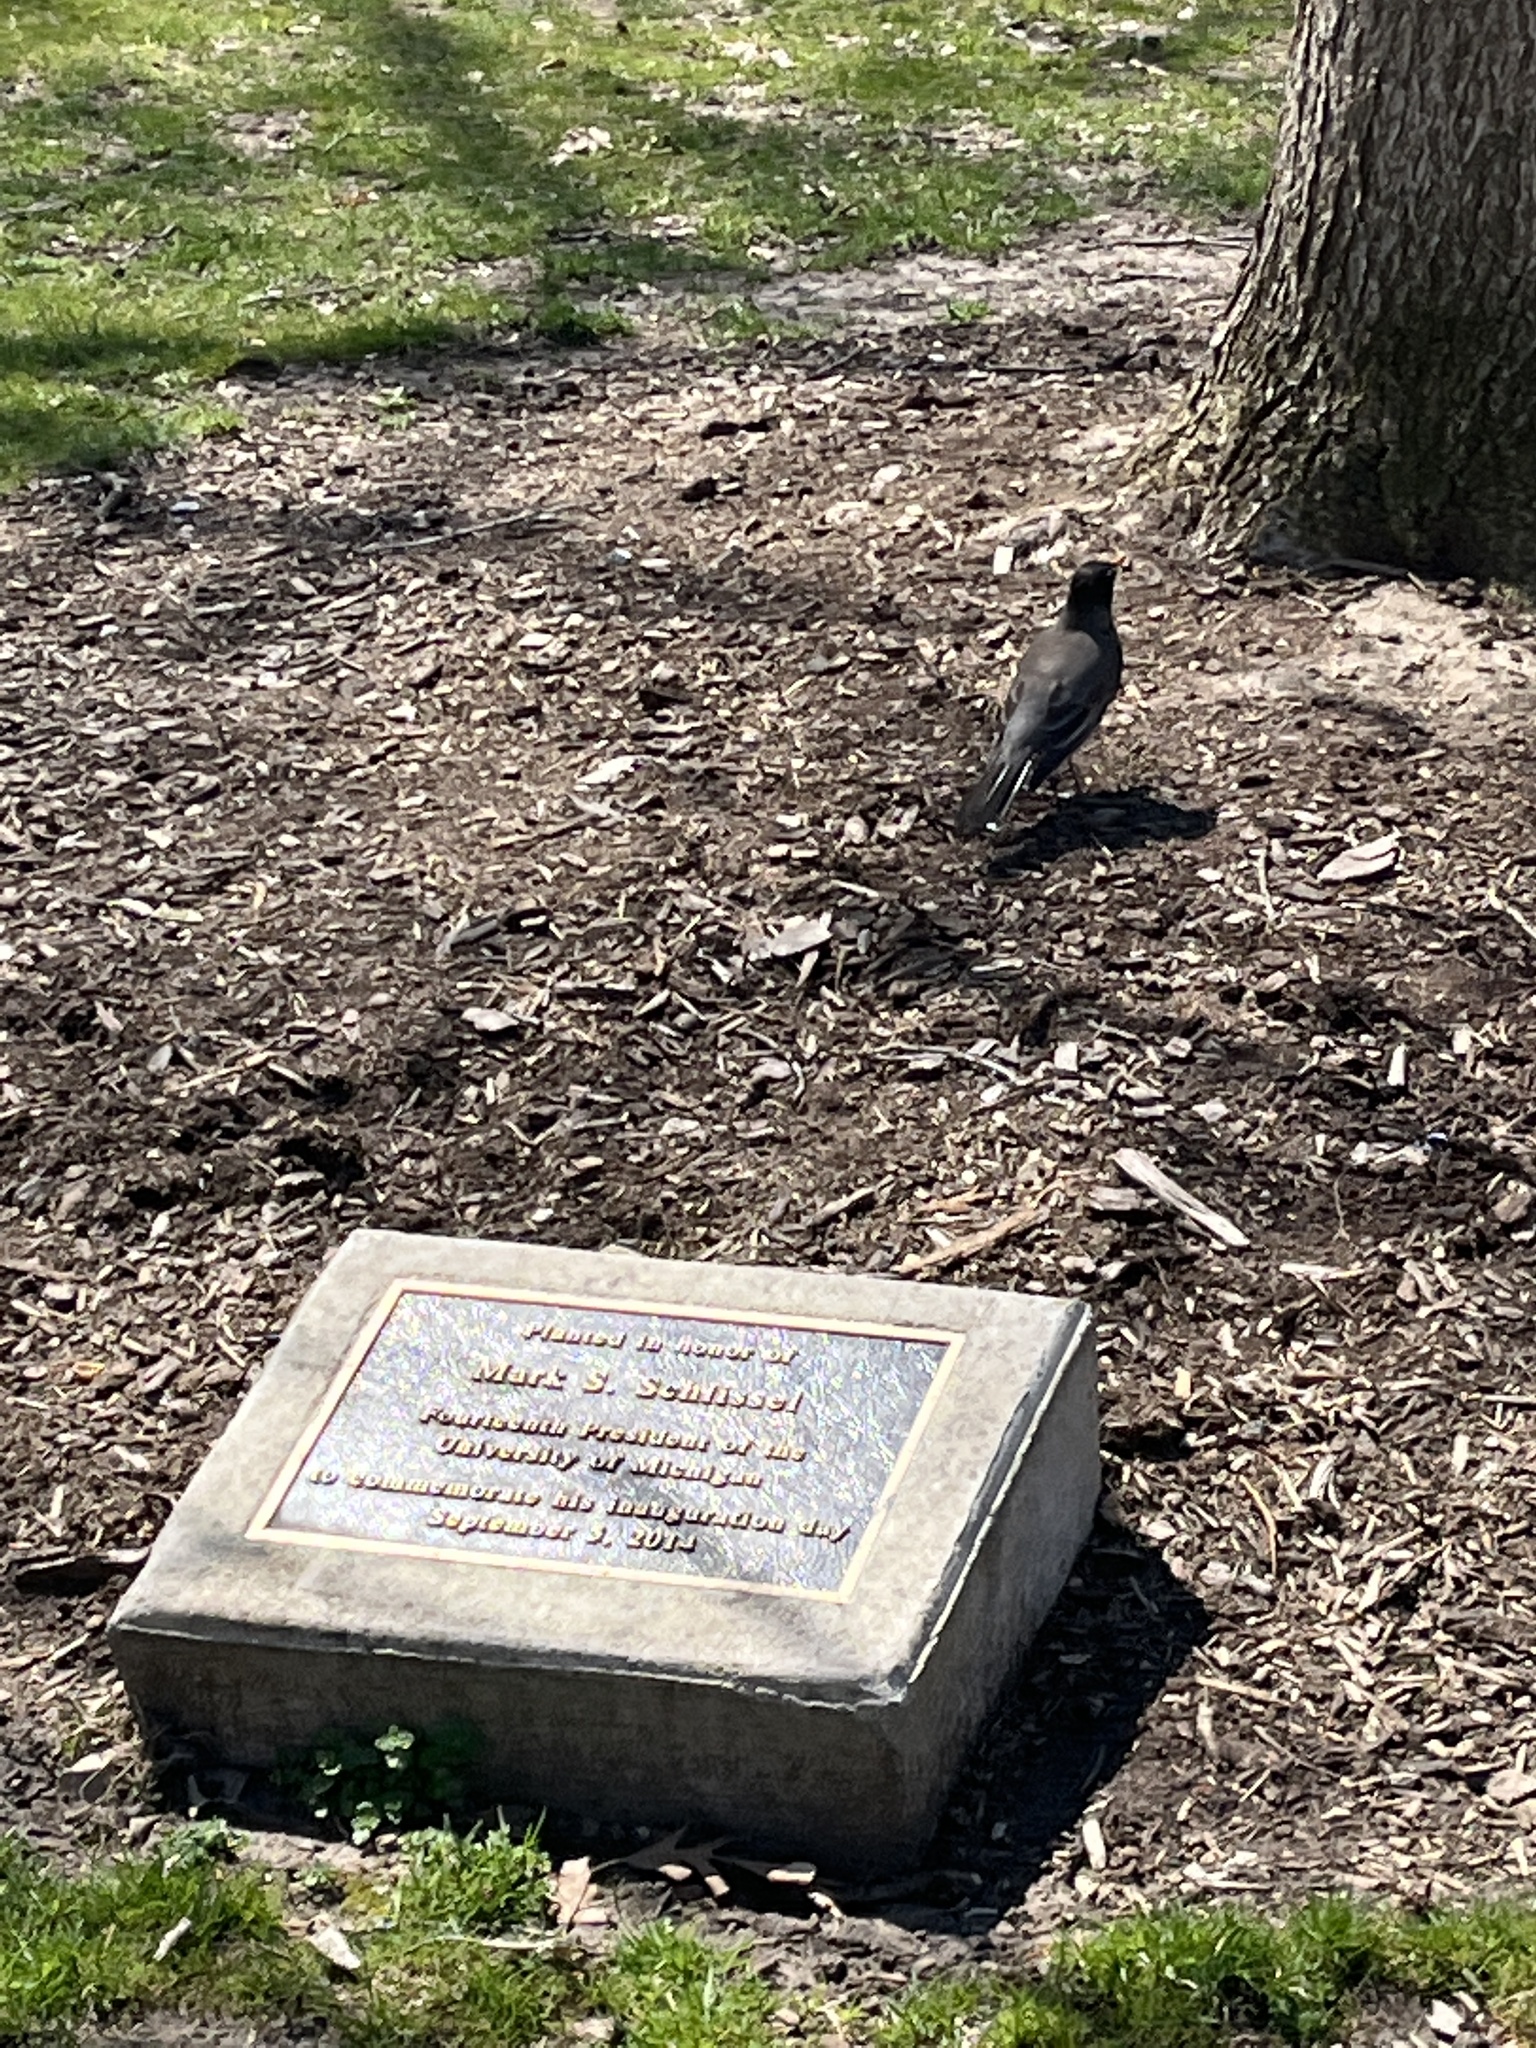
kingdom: Animalia
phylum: Chordata
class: Aves
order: Passeriformes
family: Turdidae
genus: Turdus
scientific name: Turdus migratorius
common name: American robin
